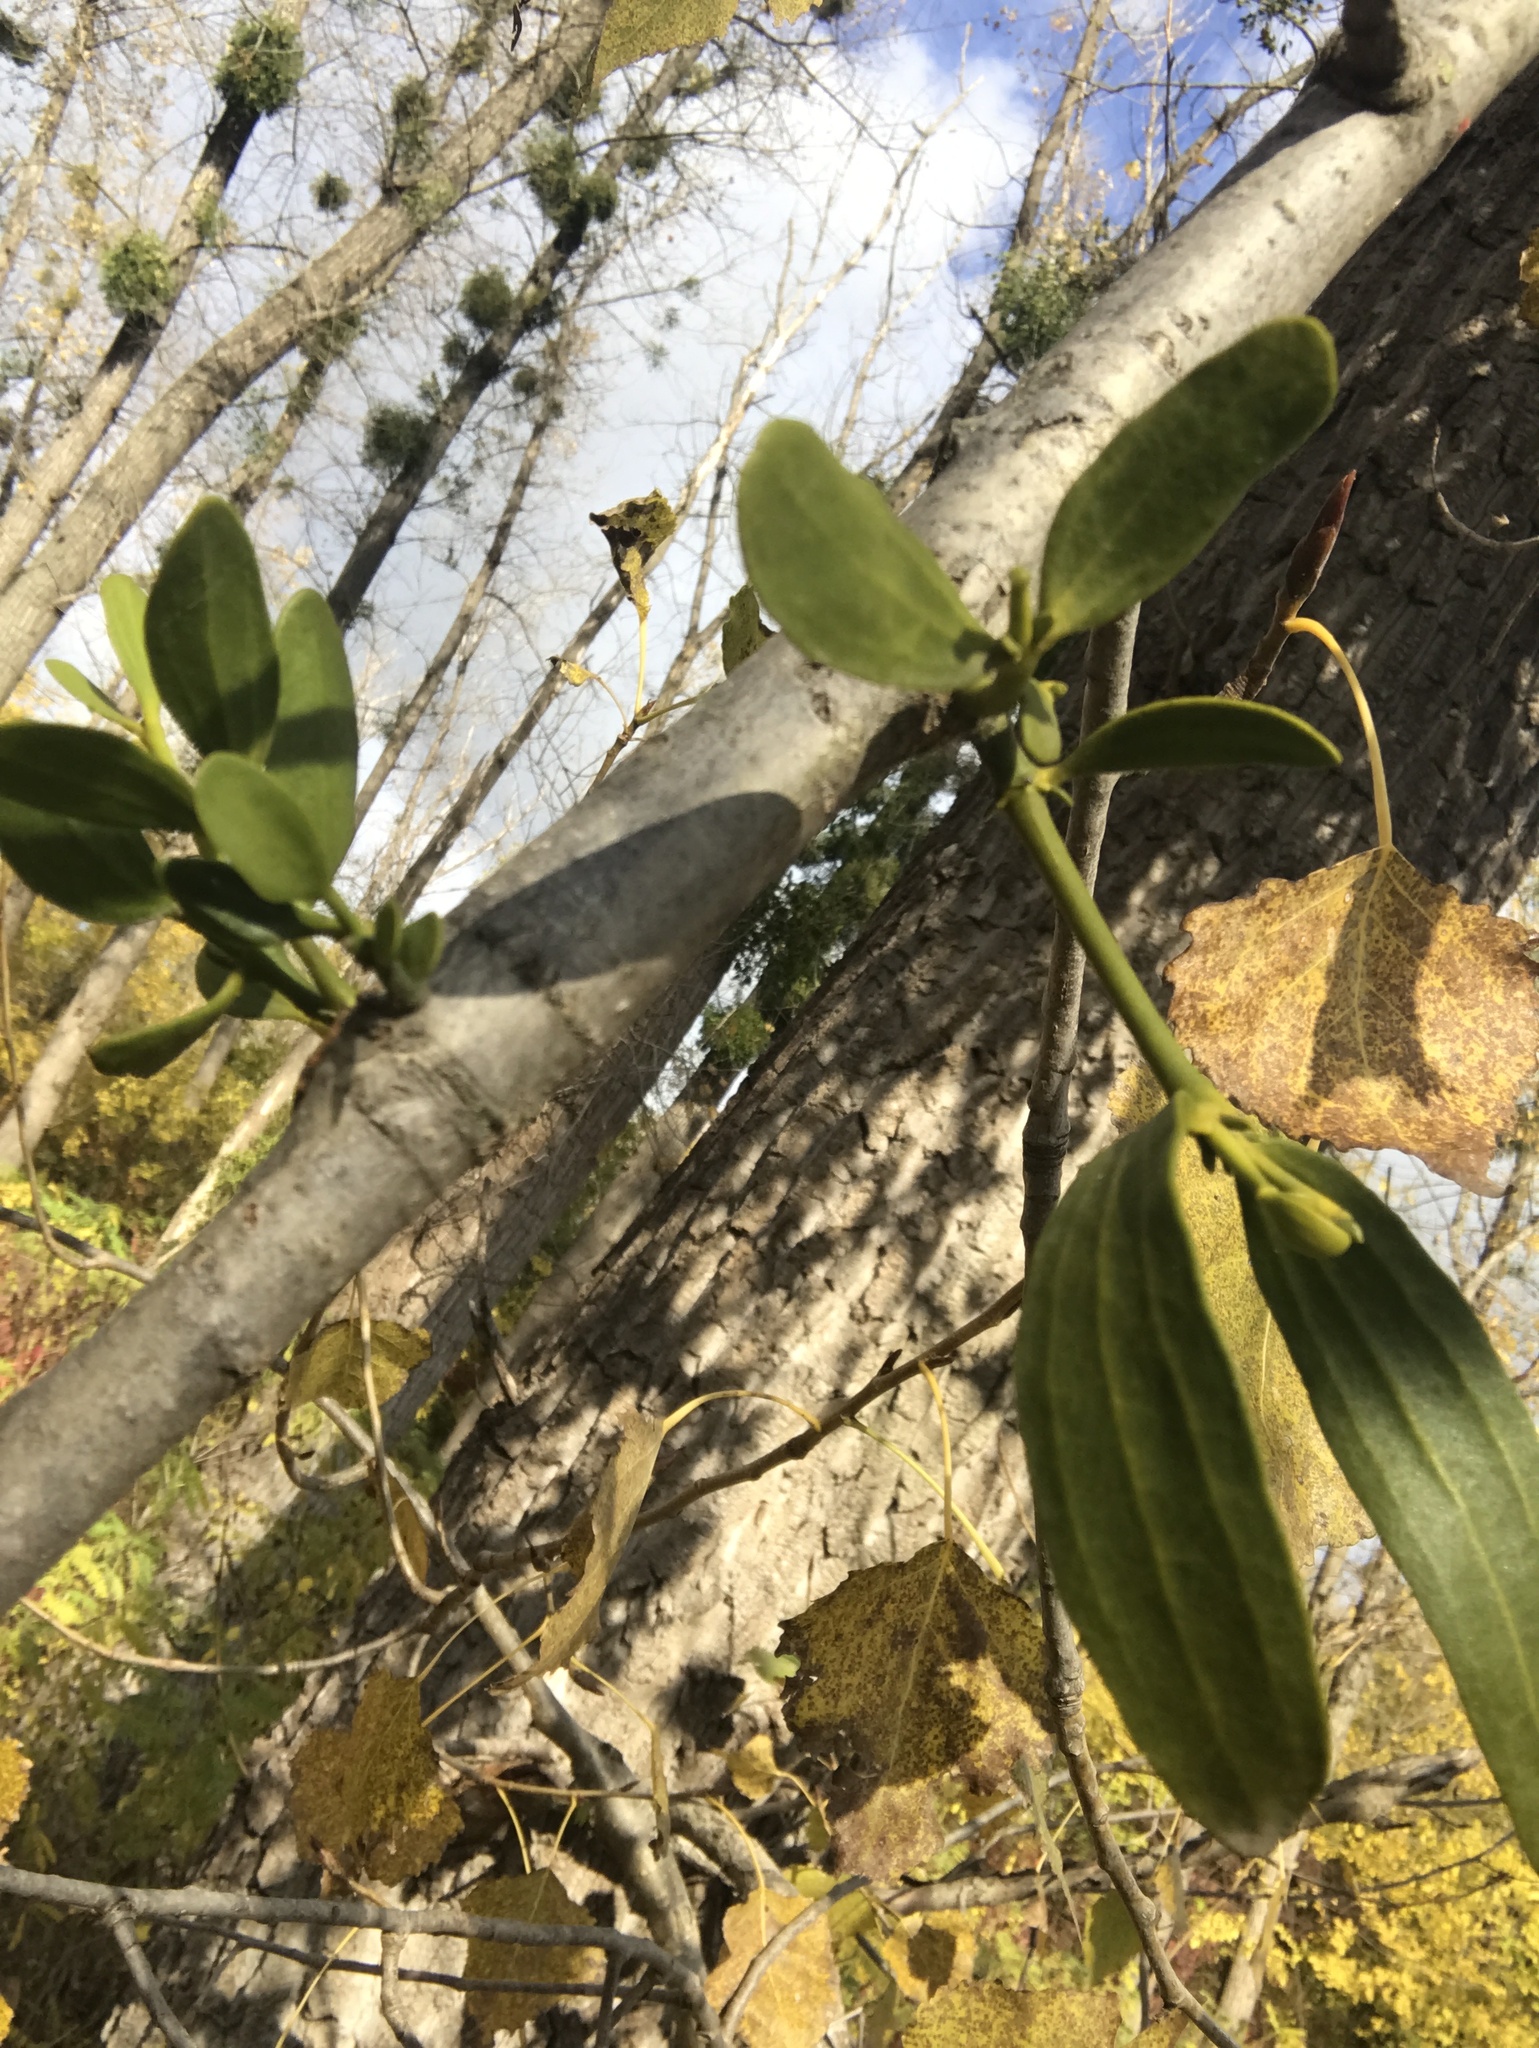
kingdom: Plantae
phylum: Tracheophyta
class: Magnoliopsida
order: Santalales
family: Viscaceae
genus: Viscum
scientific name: Viscum album
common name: Mistletoe
